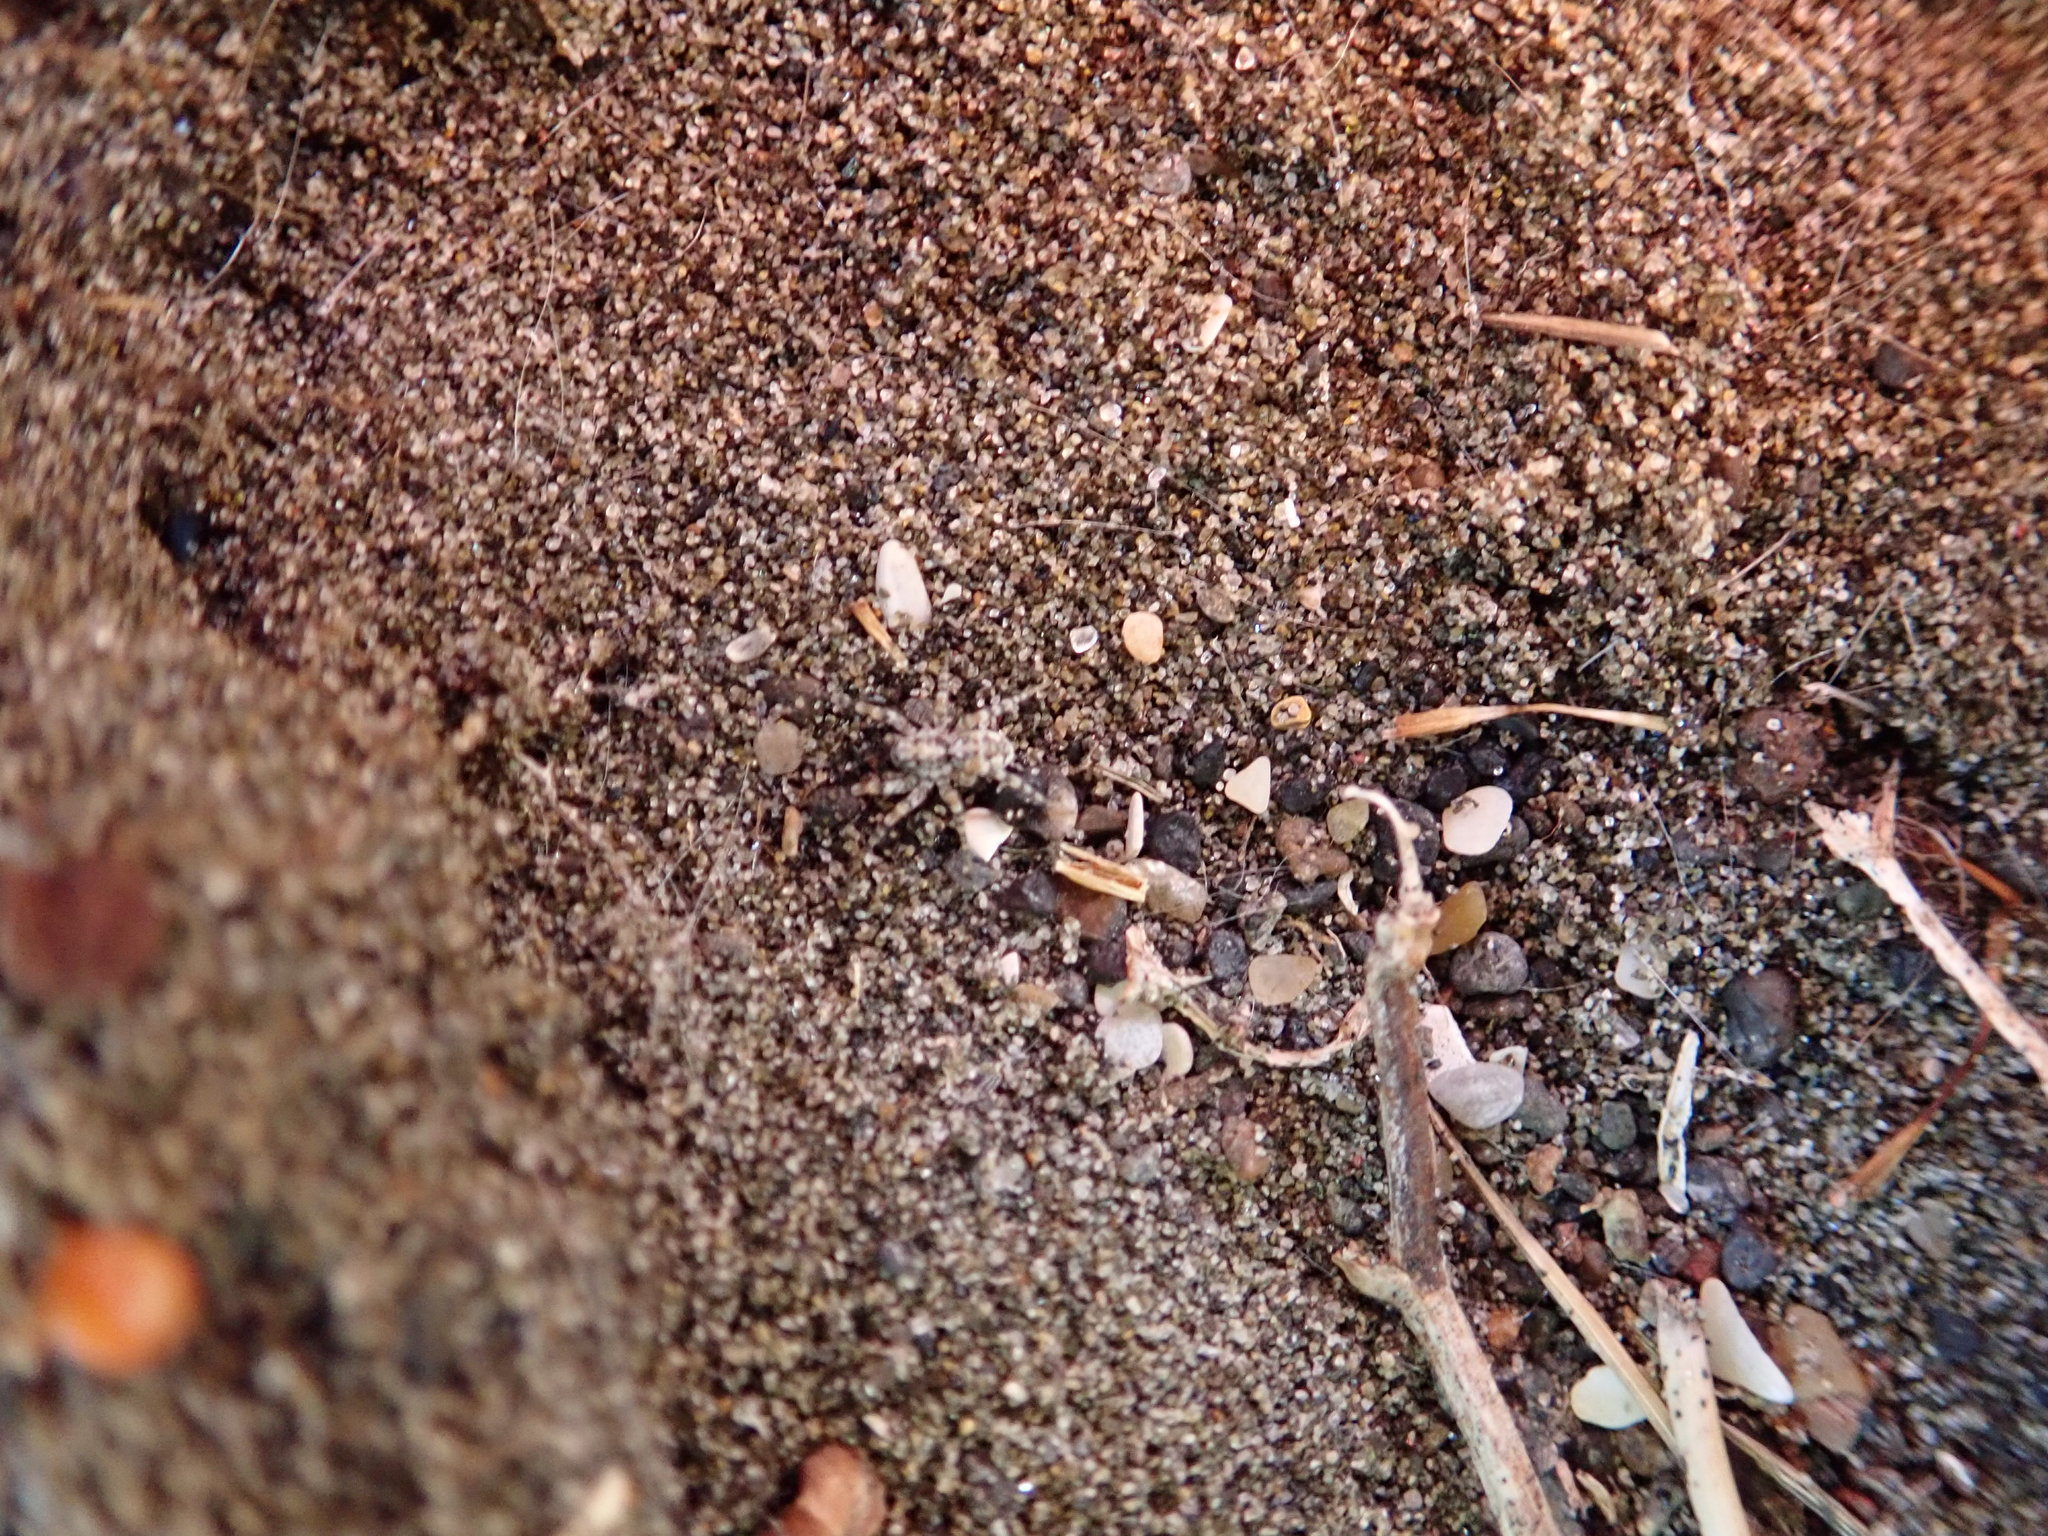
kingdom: Animalia
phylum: Arthropoda
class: Arachnida
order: Araneae
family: Lycosidae
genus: Anoteropsis
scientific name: Anoteropsis litoralis
